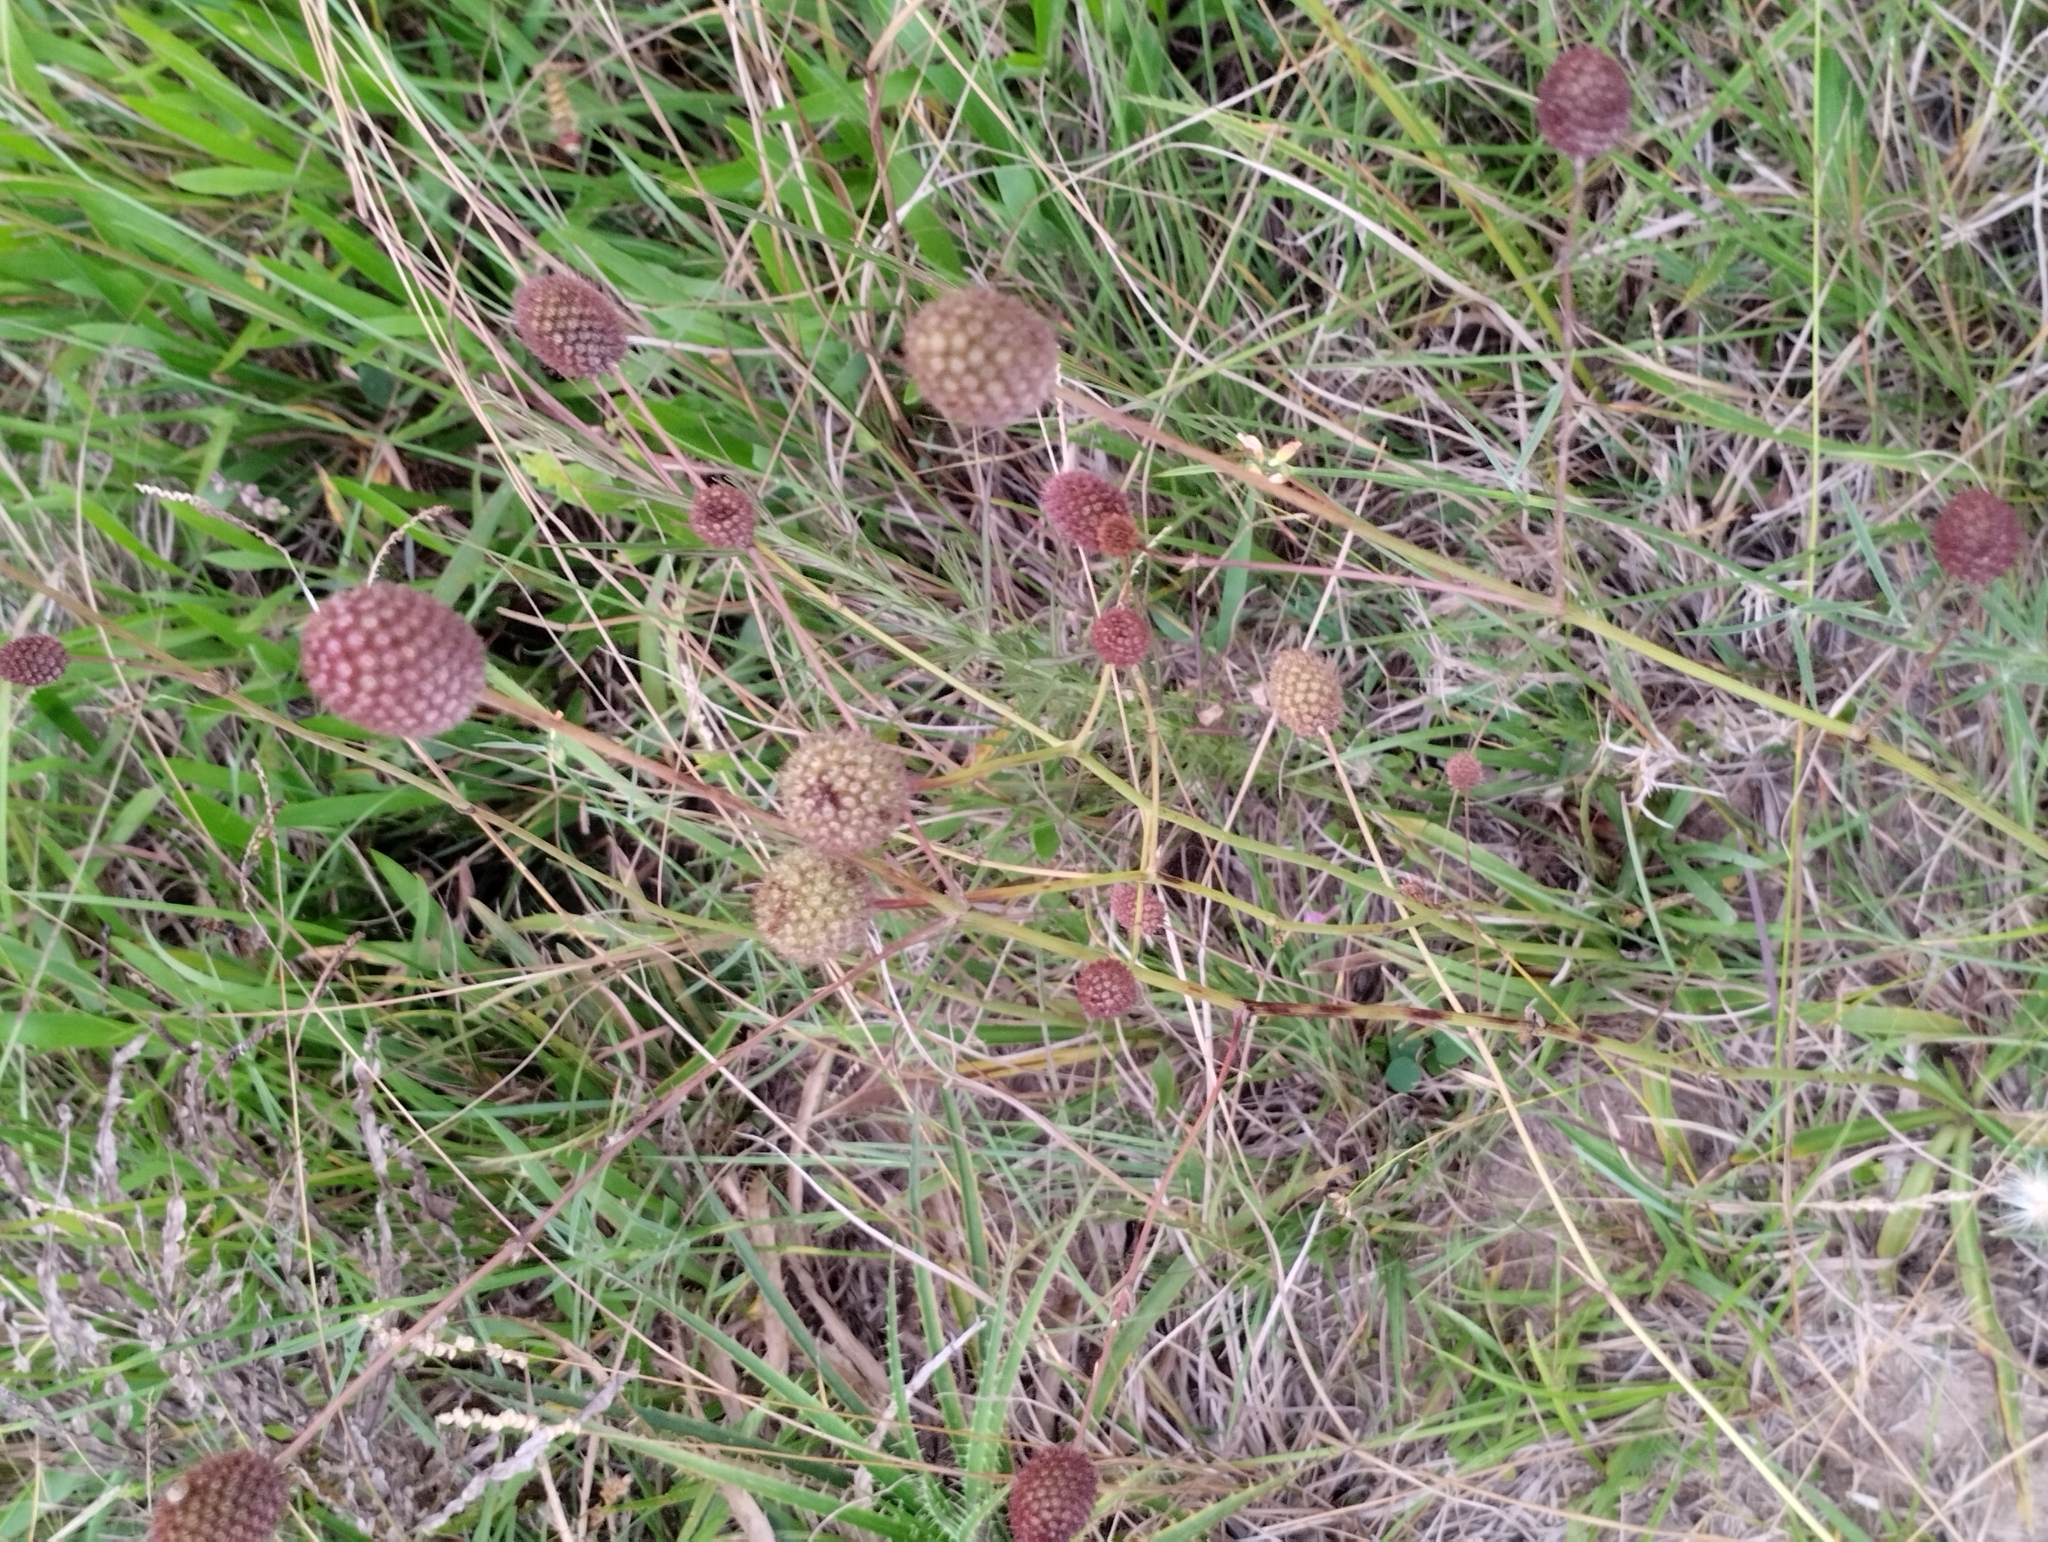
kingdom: Plantae
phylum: Tracheophyta
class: Magnoliopsida
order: Apiales
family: Apiaceae
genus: Eryngium
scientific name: Eryngium sanguisorba
